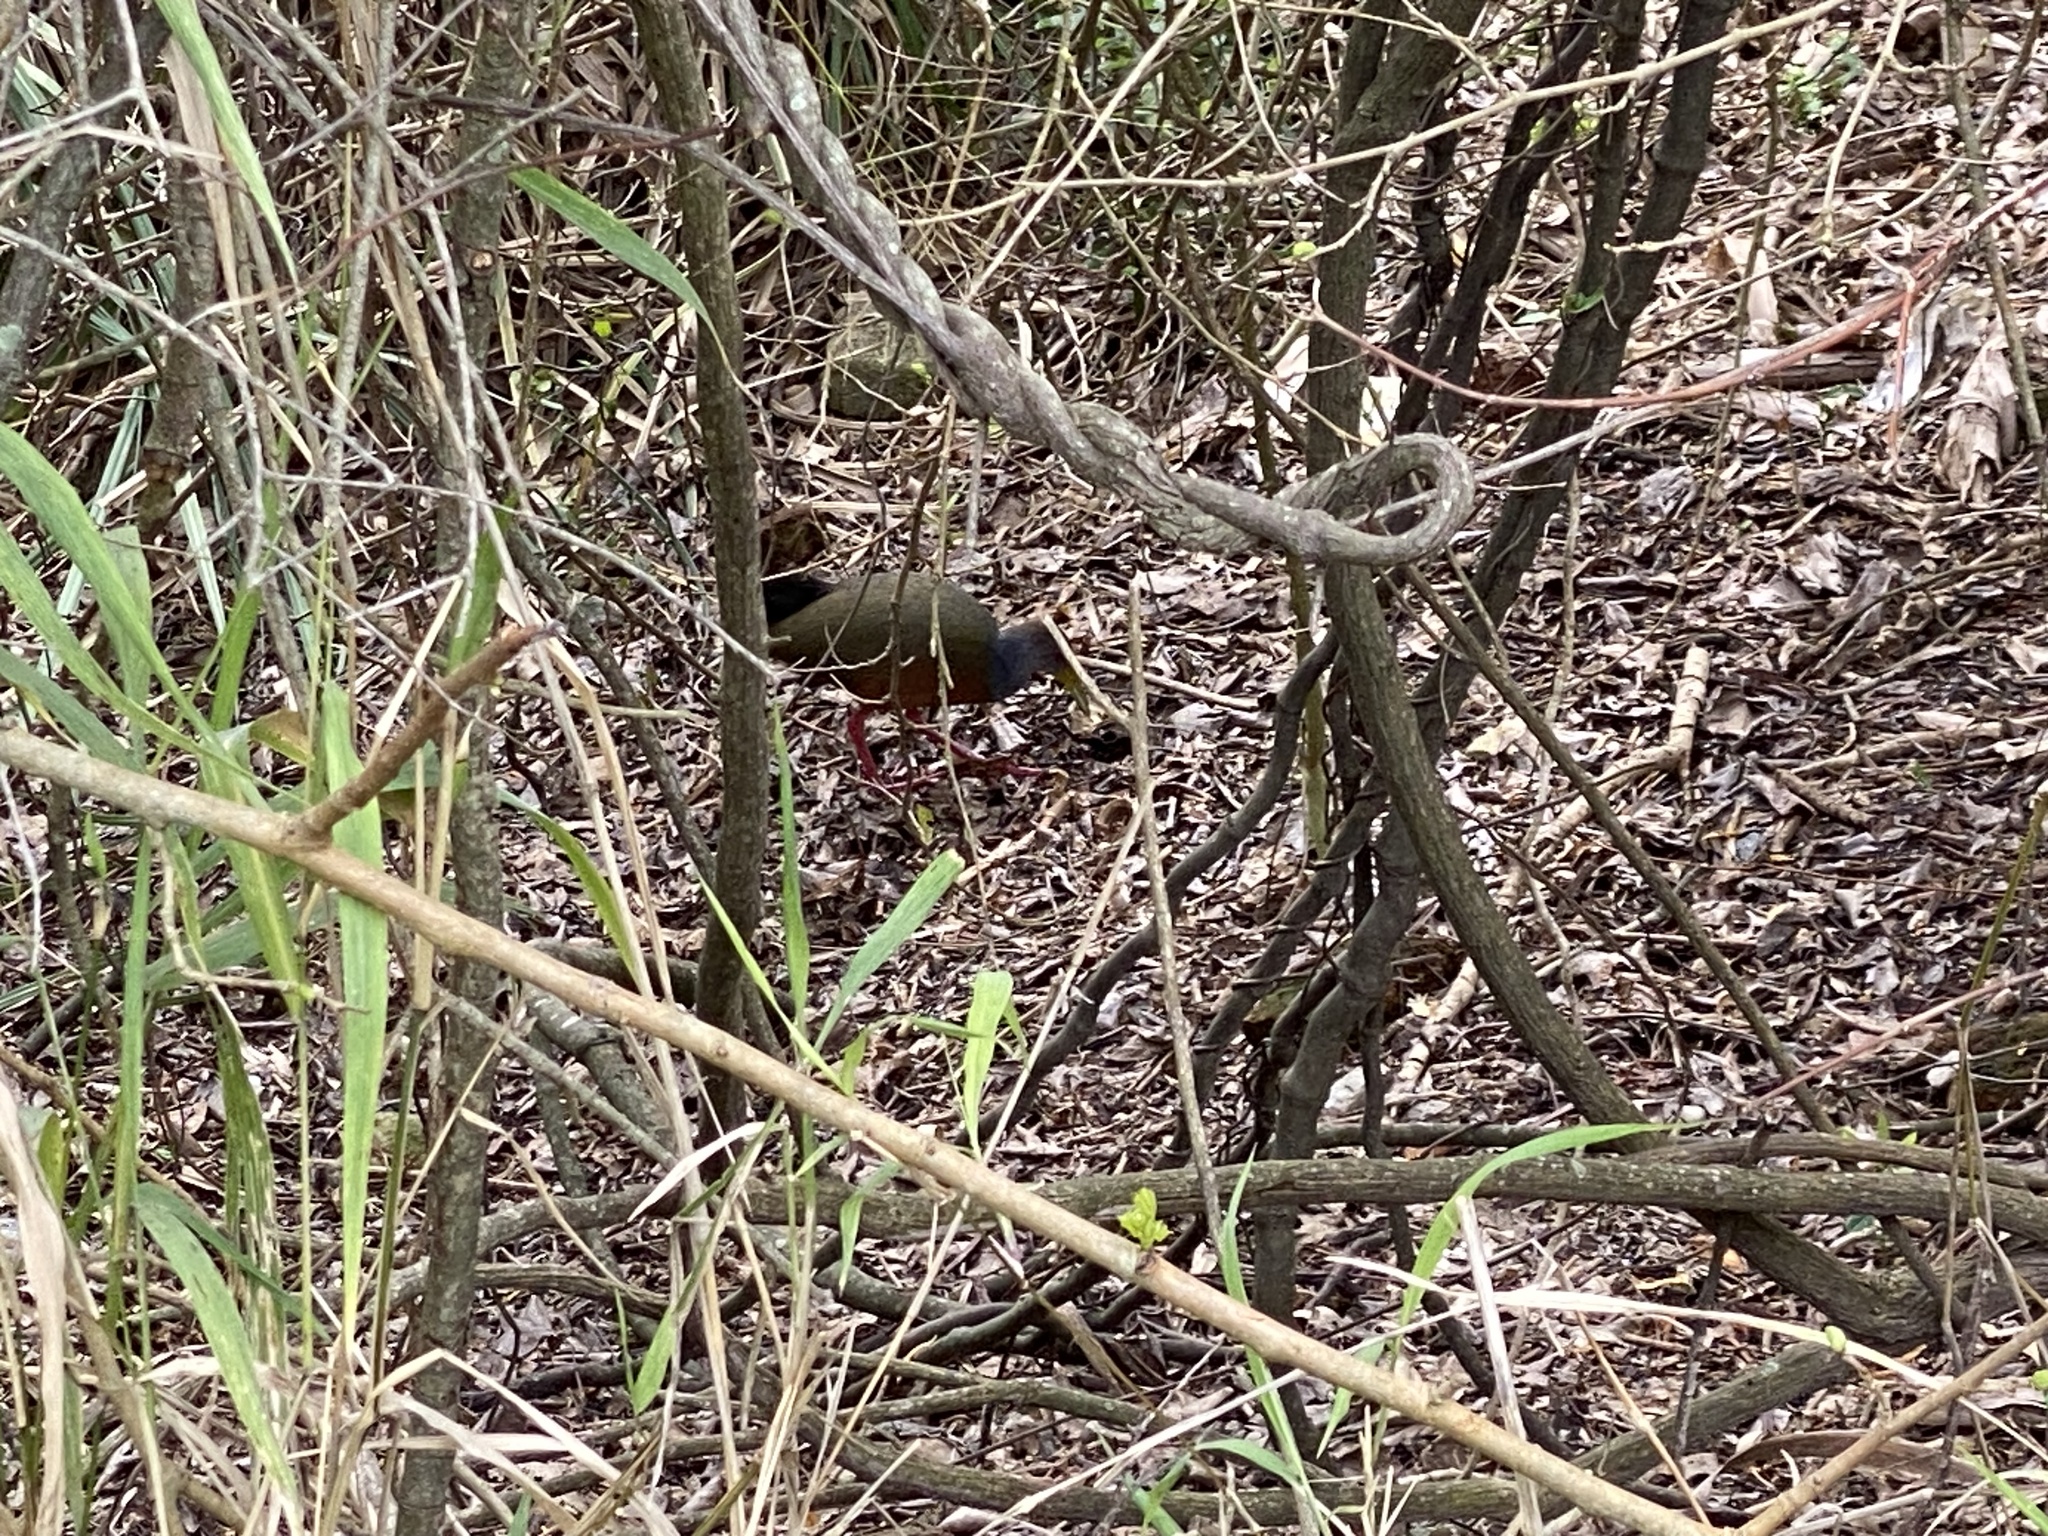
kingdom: Animalia
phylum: Chordata
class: Aves
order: Gruiformes
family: Rallidae
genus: Aramides
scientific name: Aramides cajanea
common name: Gray-necked wood-rail
